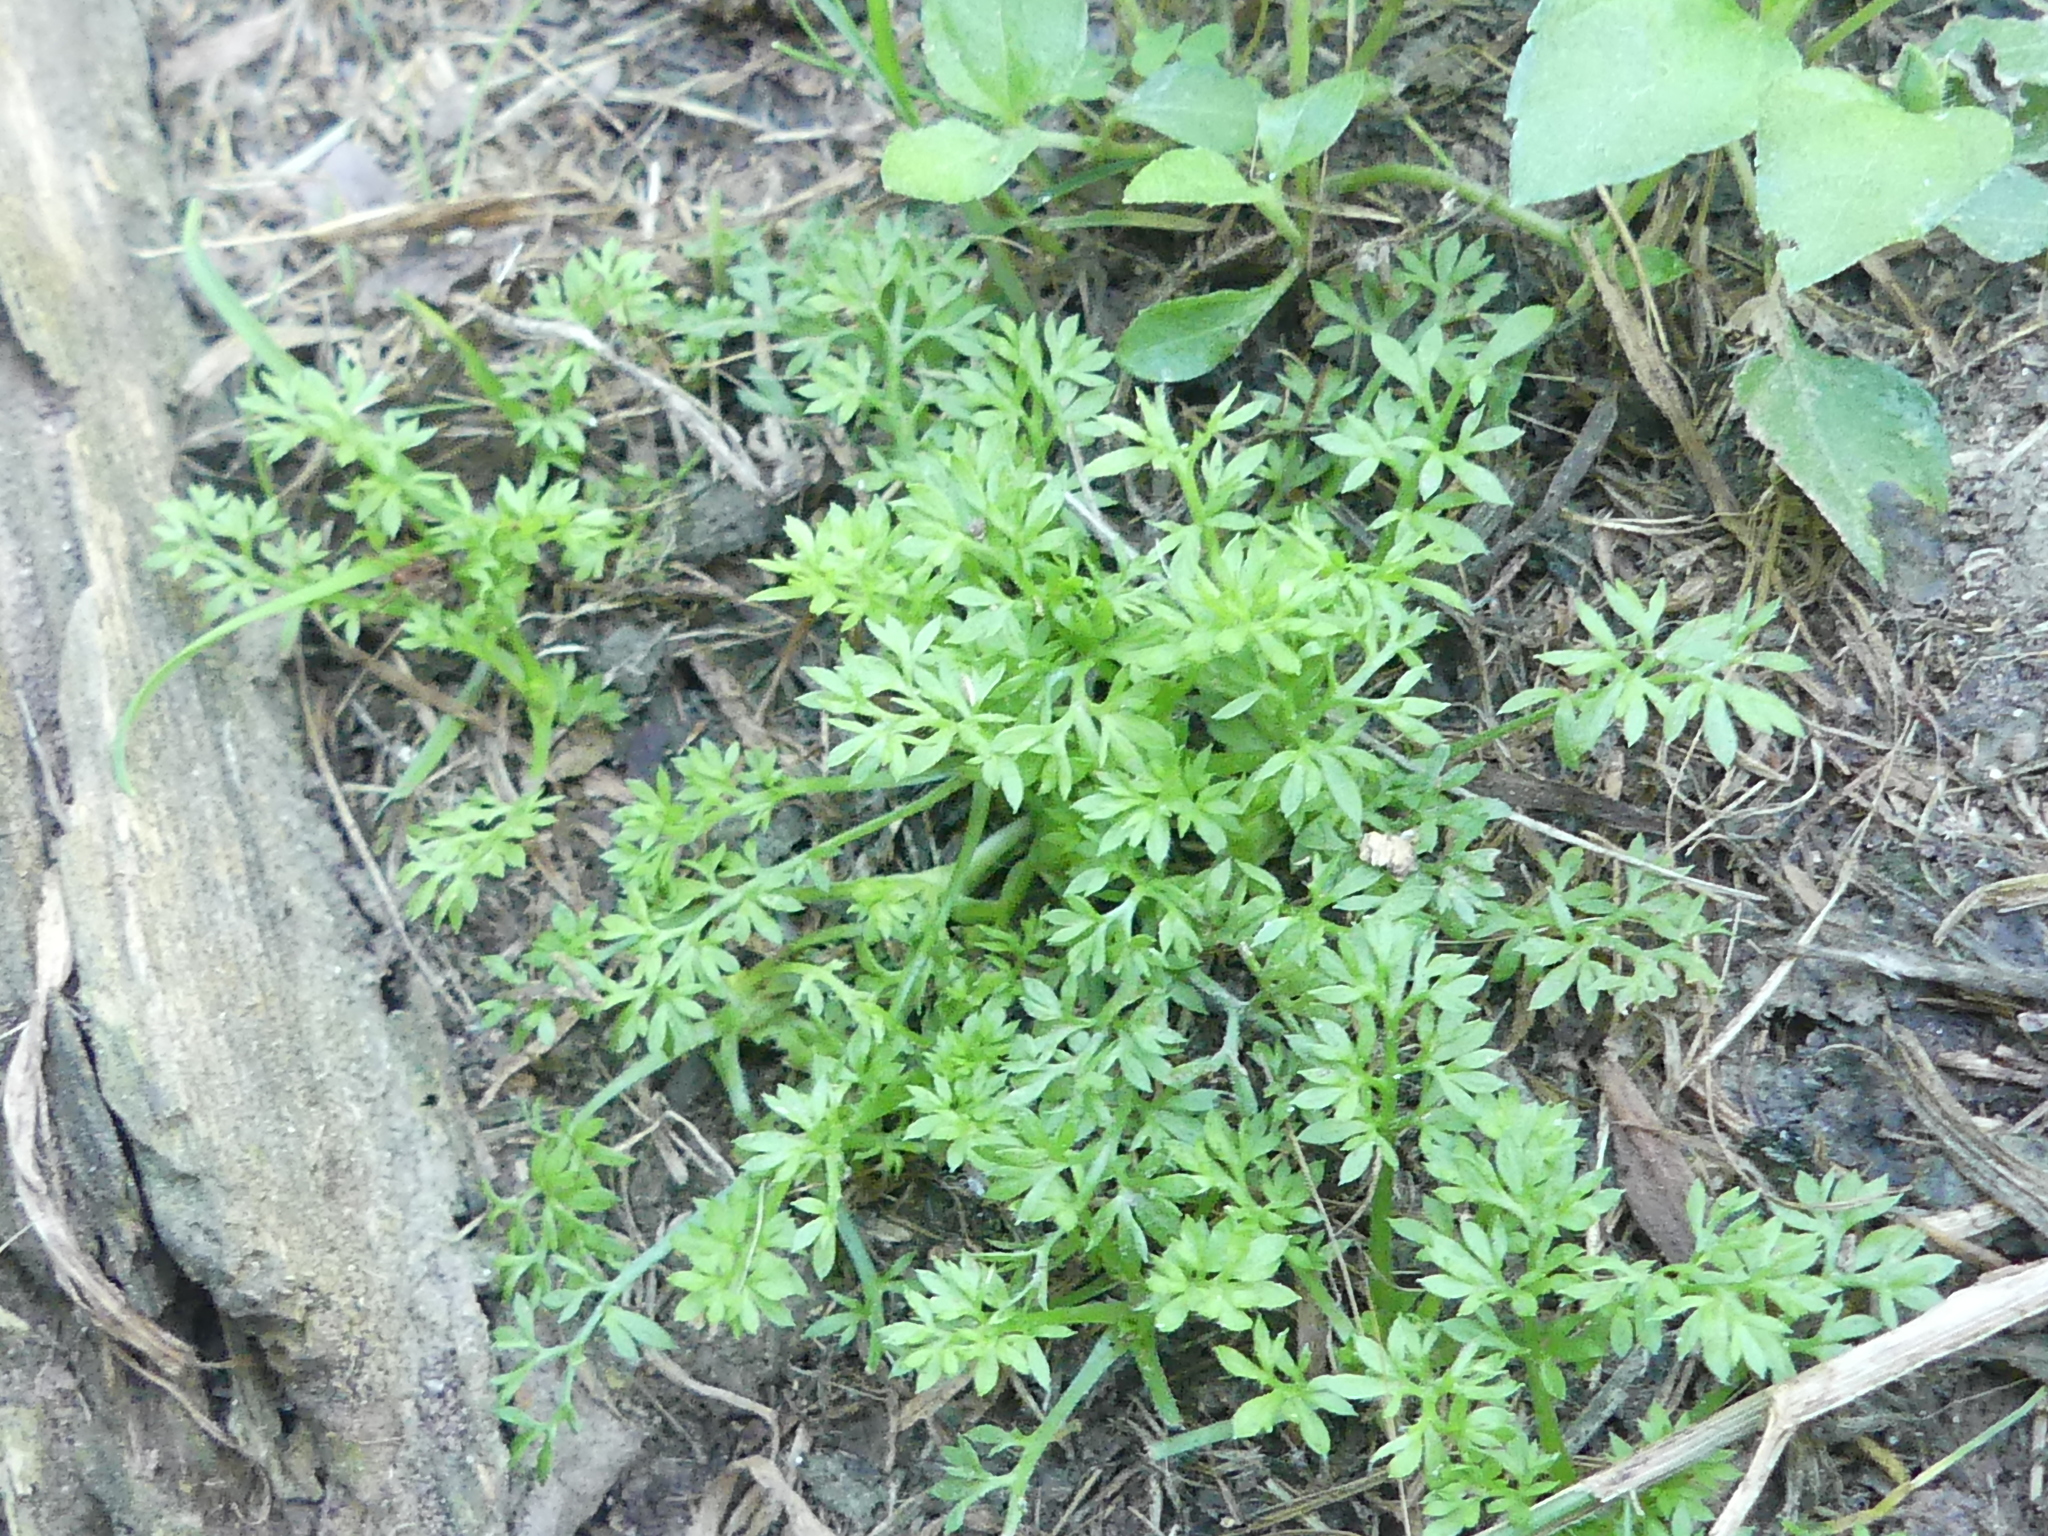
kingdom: Plantae
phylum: Tracheophyta
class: Magnoliopsida
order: Asterales
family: Asteraceae
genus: Soliva
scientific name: Soliva sessilis
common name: Field burrweed
